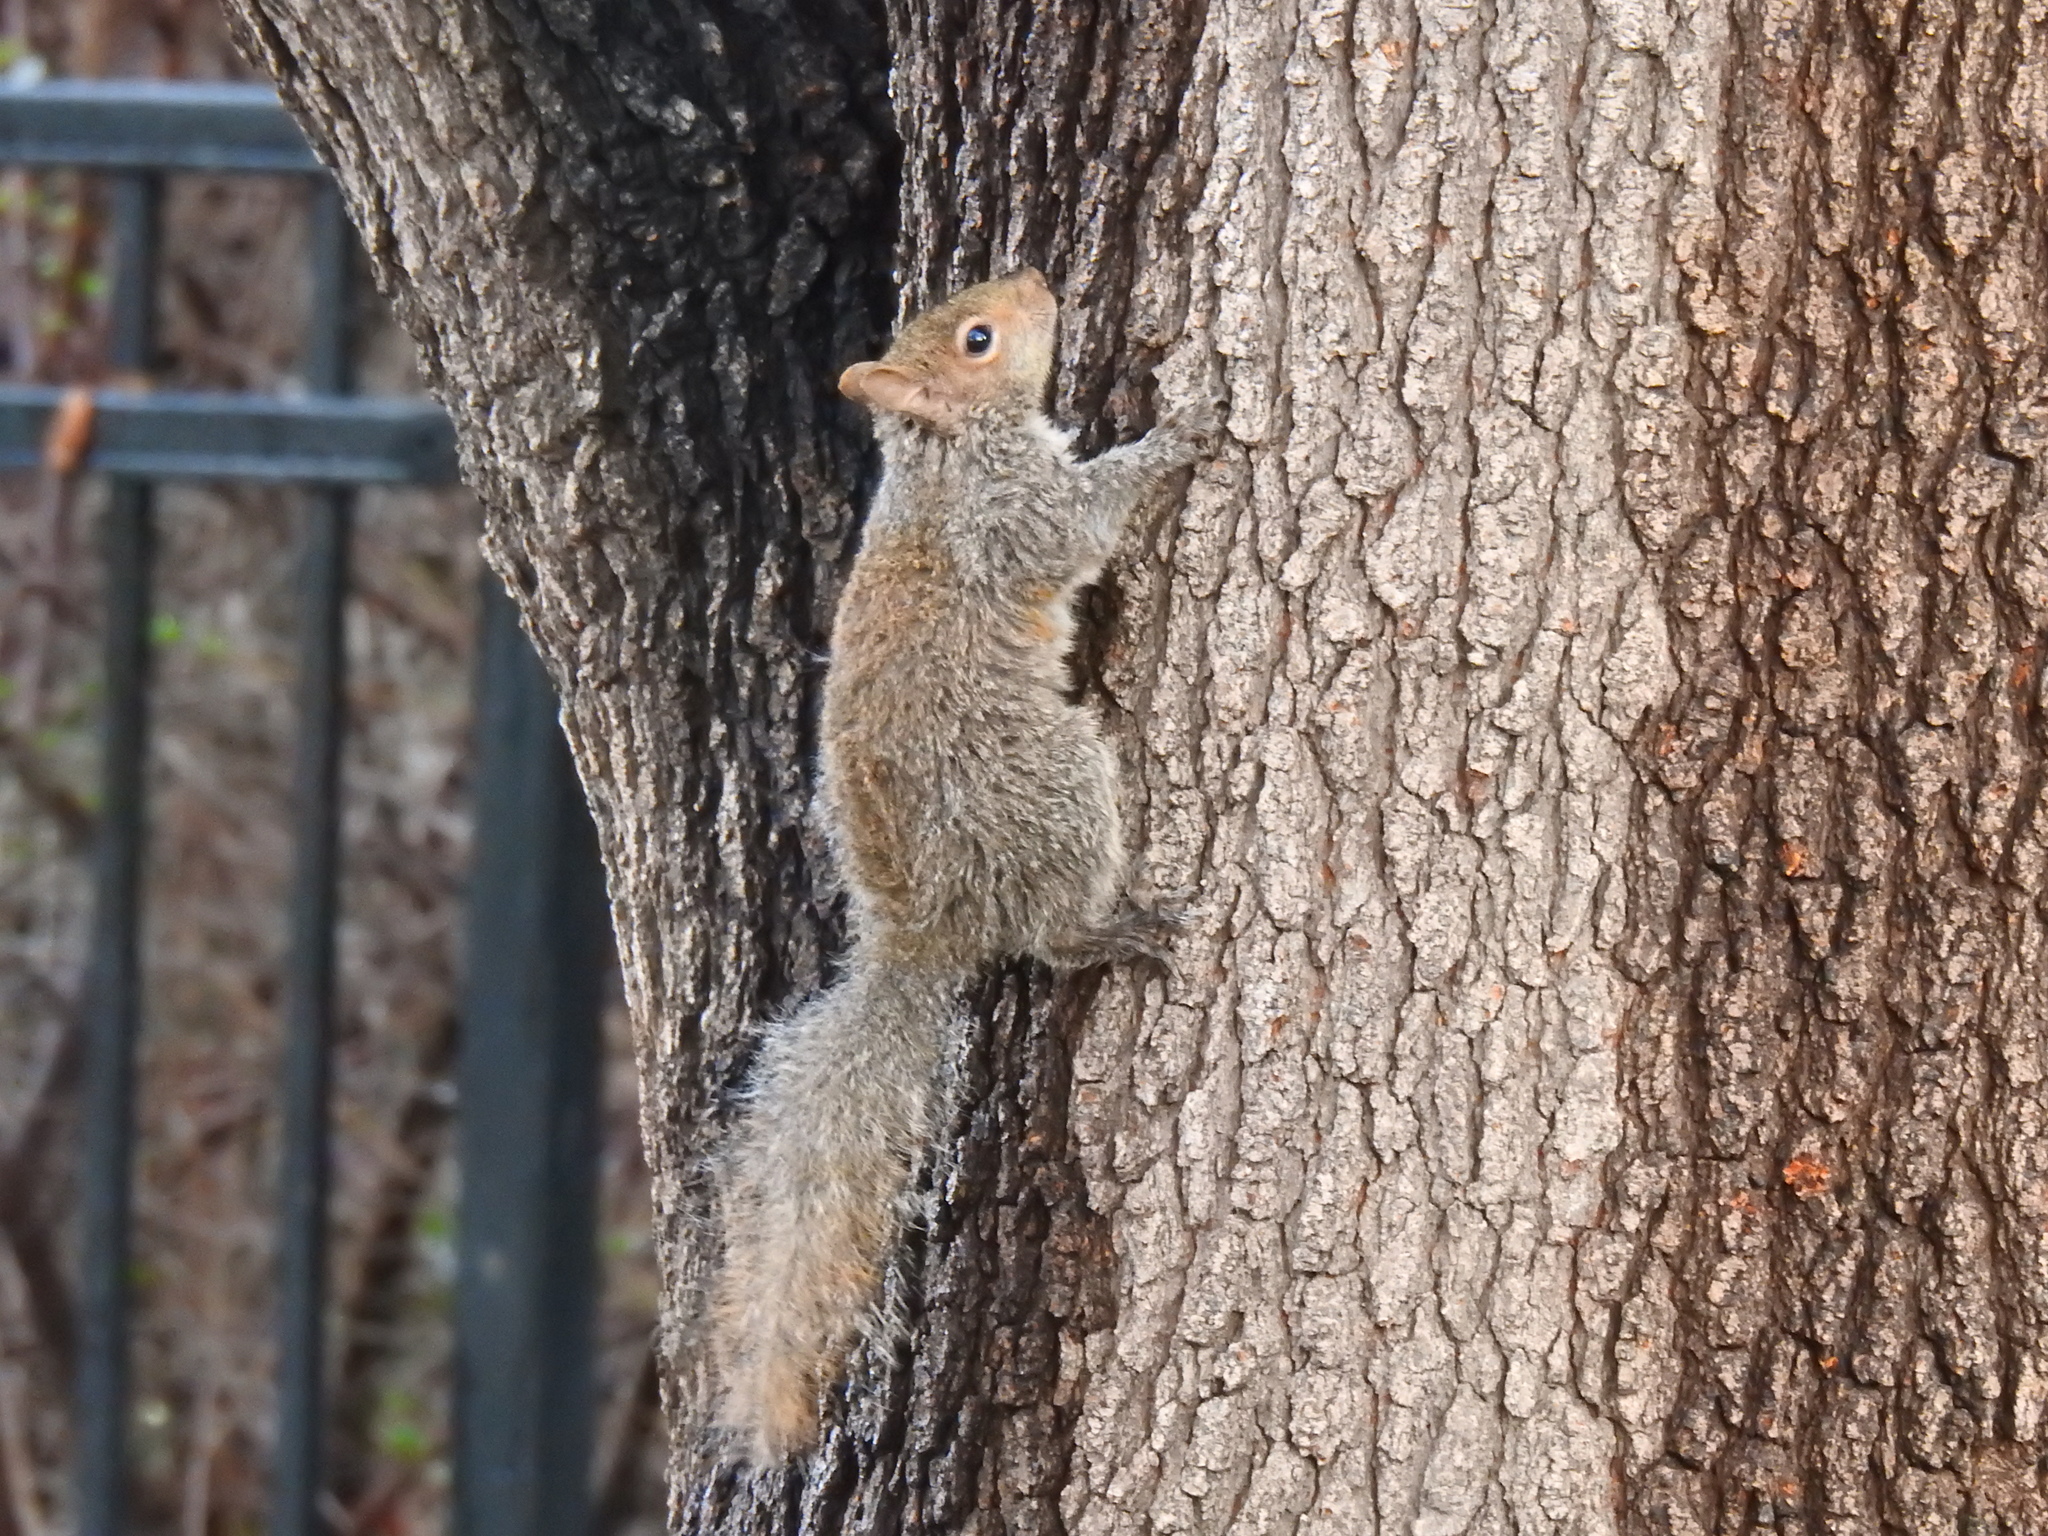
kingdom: Animalia
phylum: Chordata
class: Mammalia
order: Rodentia
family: Sciuridae
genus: Sciurus
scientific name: Sciurus carolinensis
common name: Eastern gray squirrel
